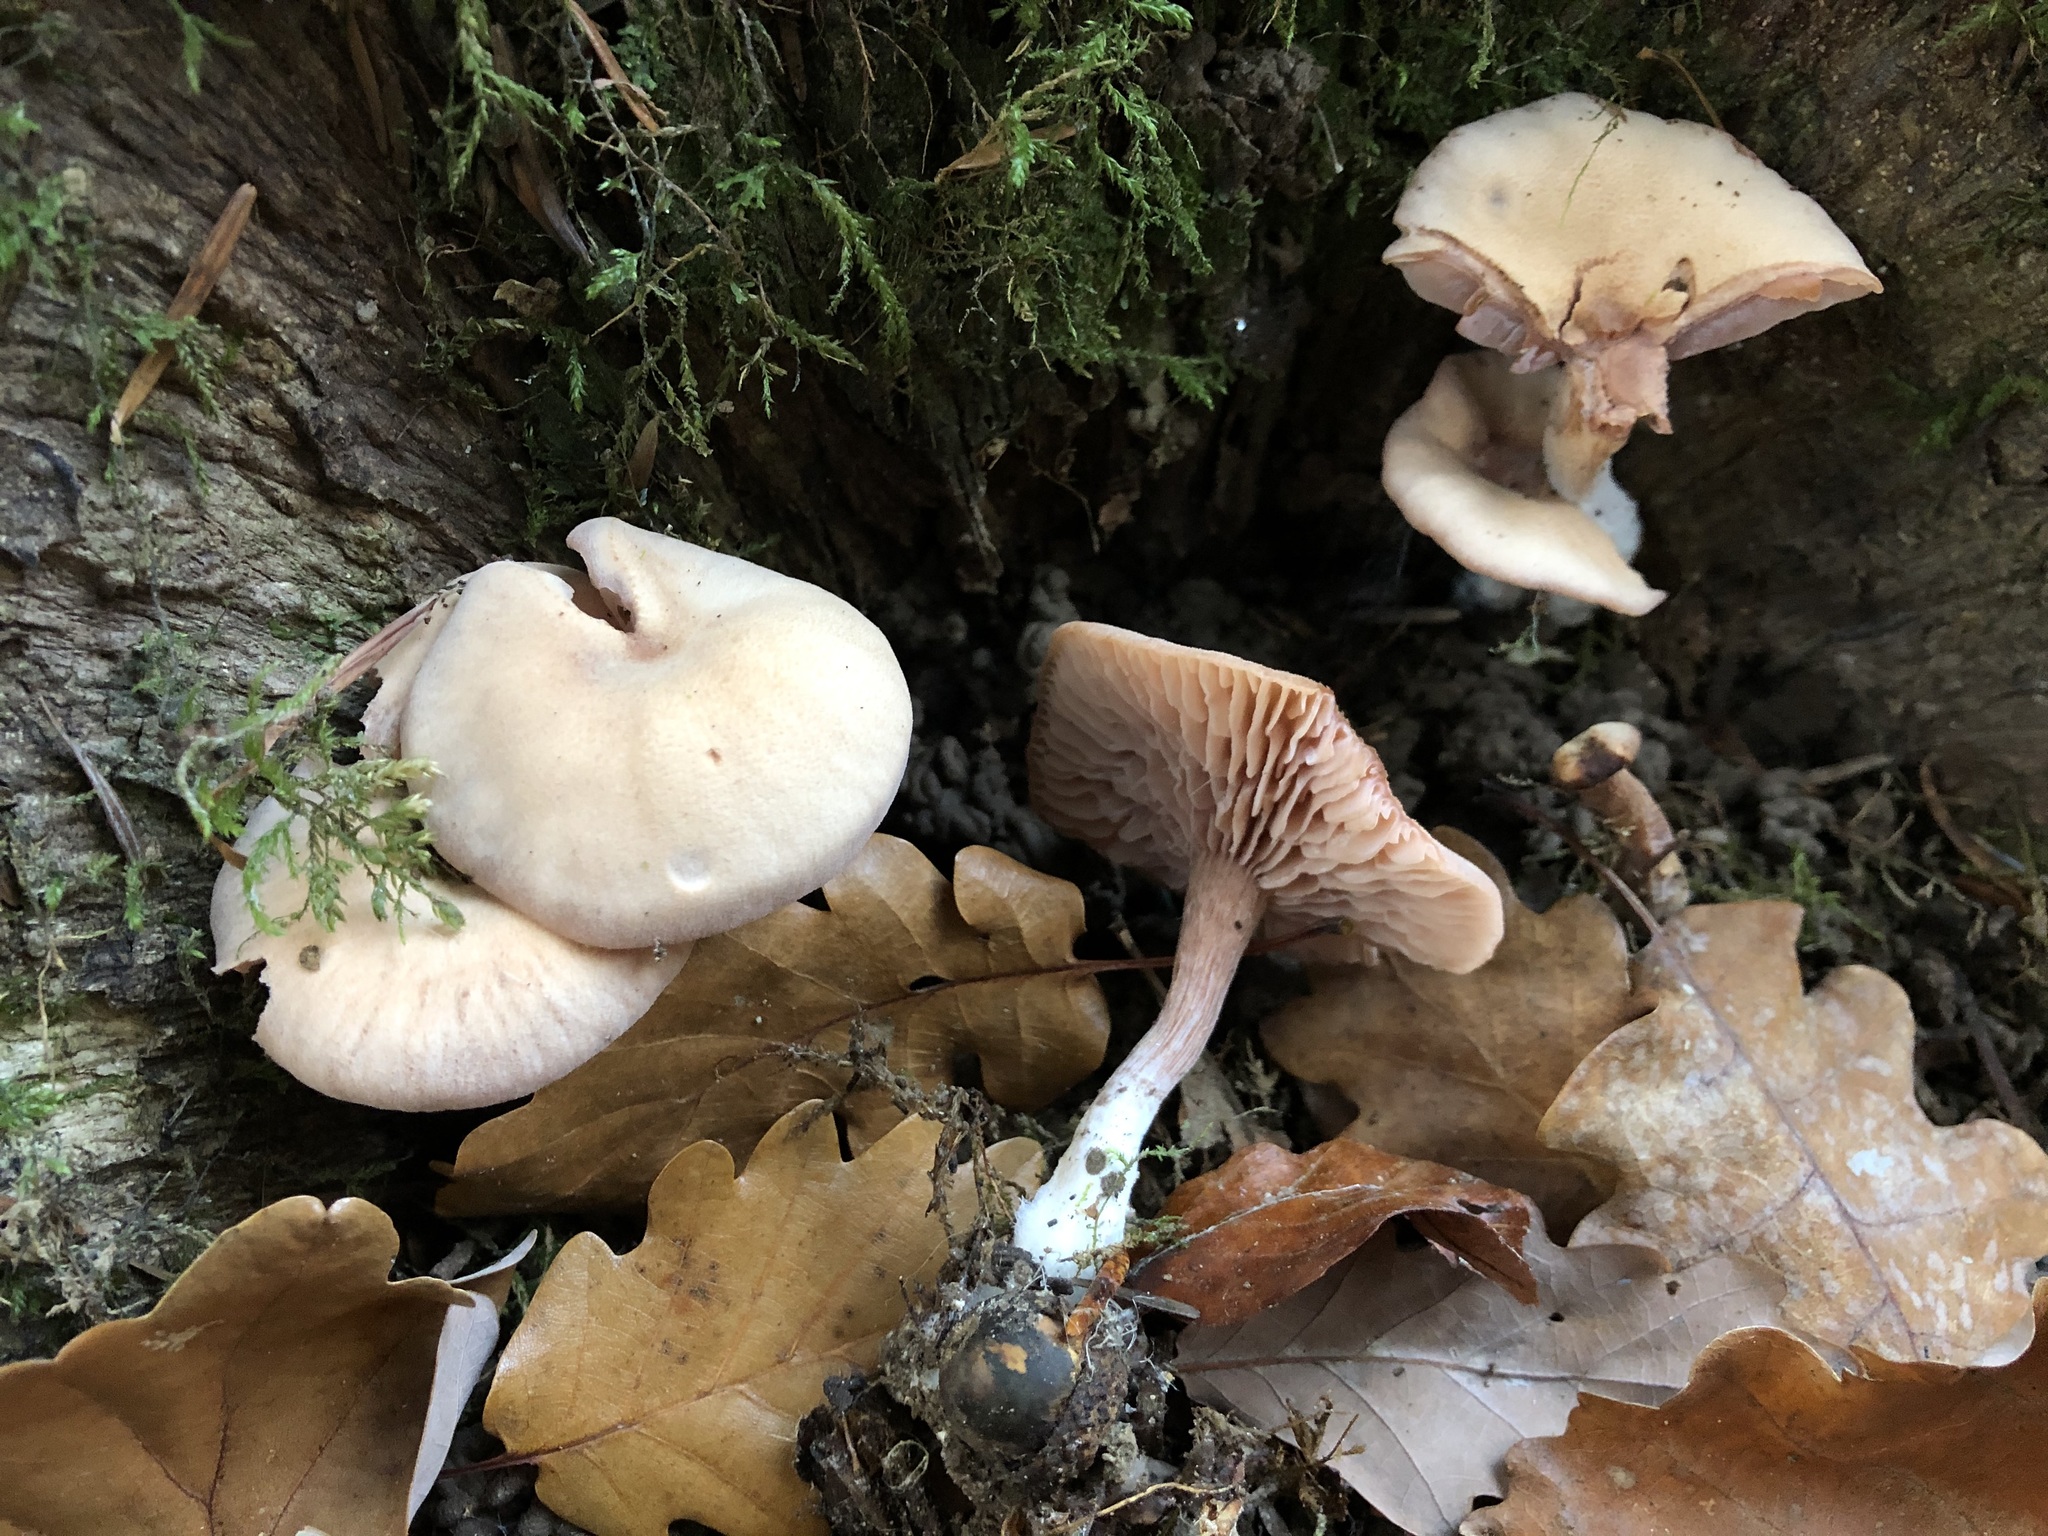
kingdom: Fungi
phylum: Basidiomycota
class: Agaricomycetes
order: Agaricales
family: Hydnangiaceae
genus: Laccaria
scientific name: Laccaria laccata
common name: Deceiver
